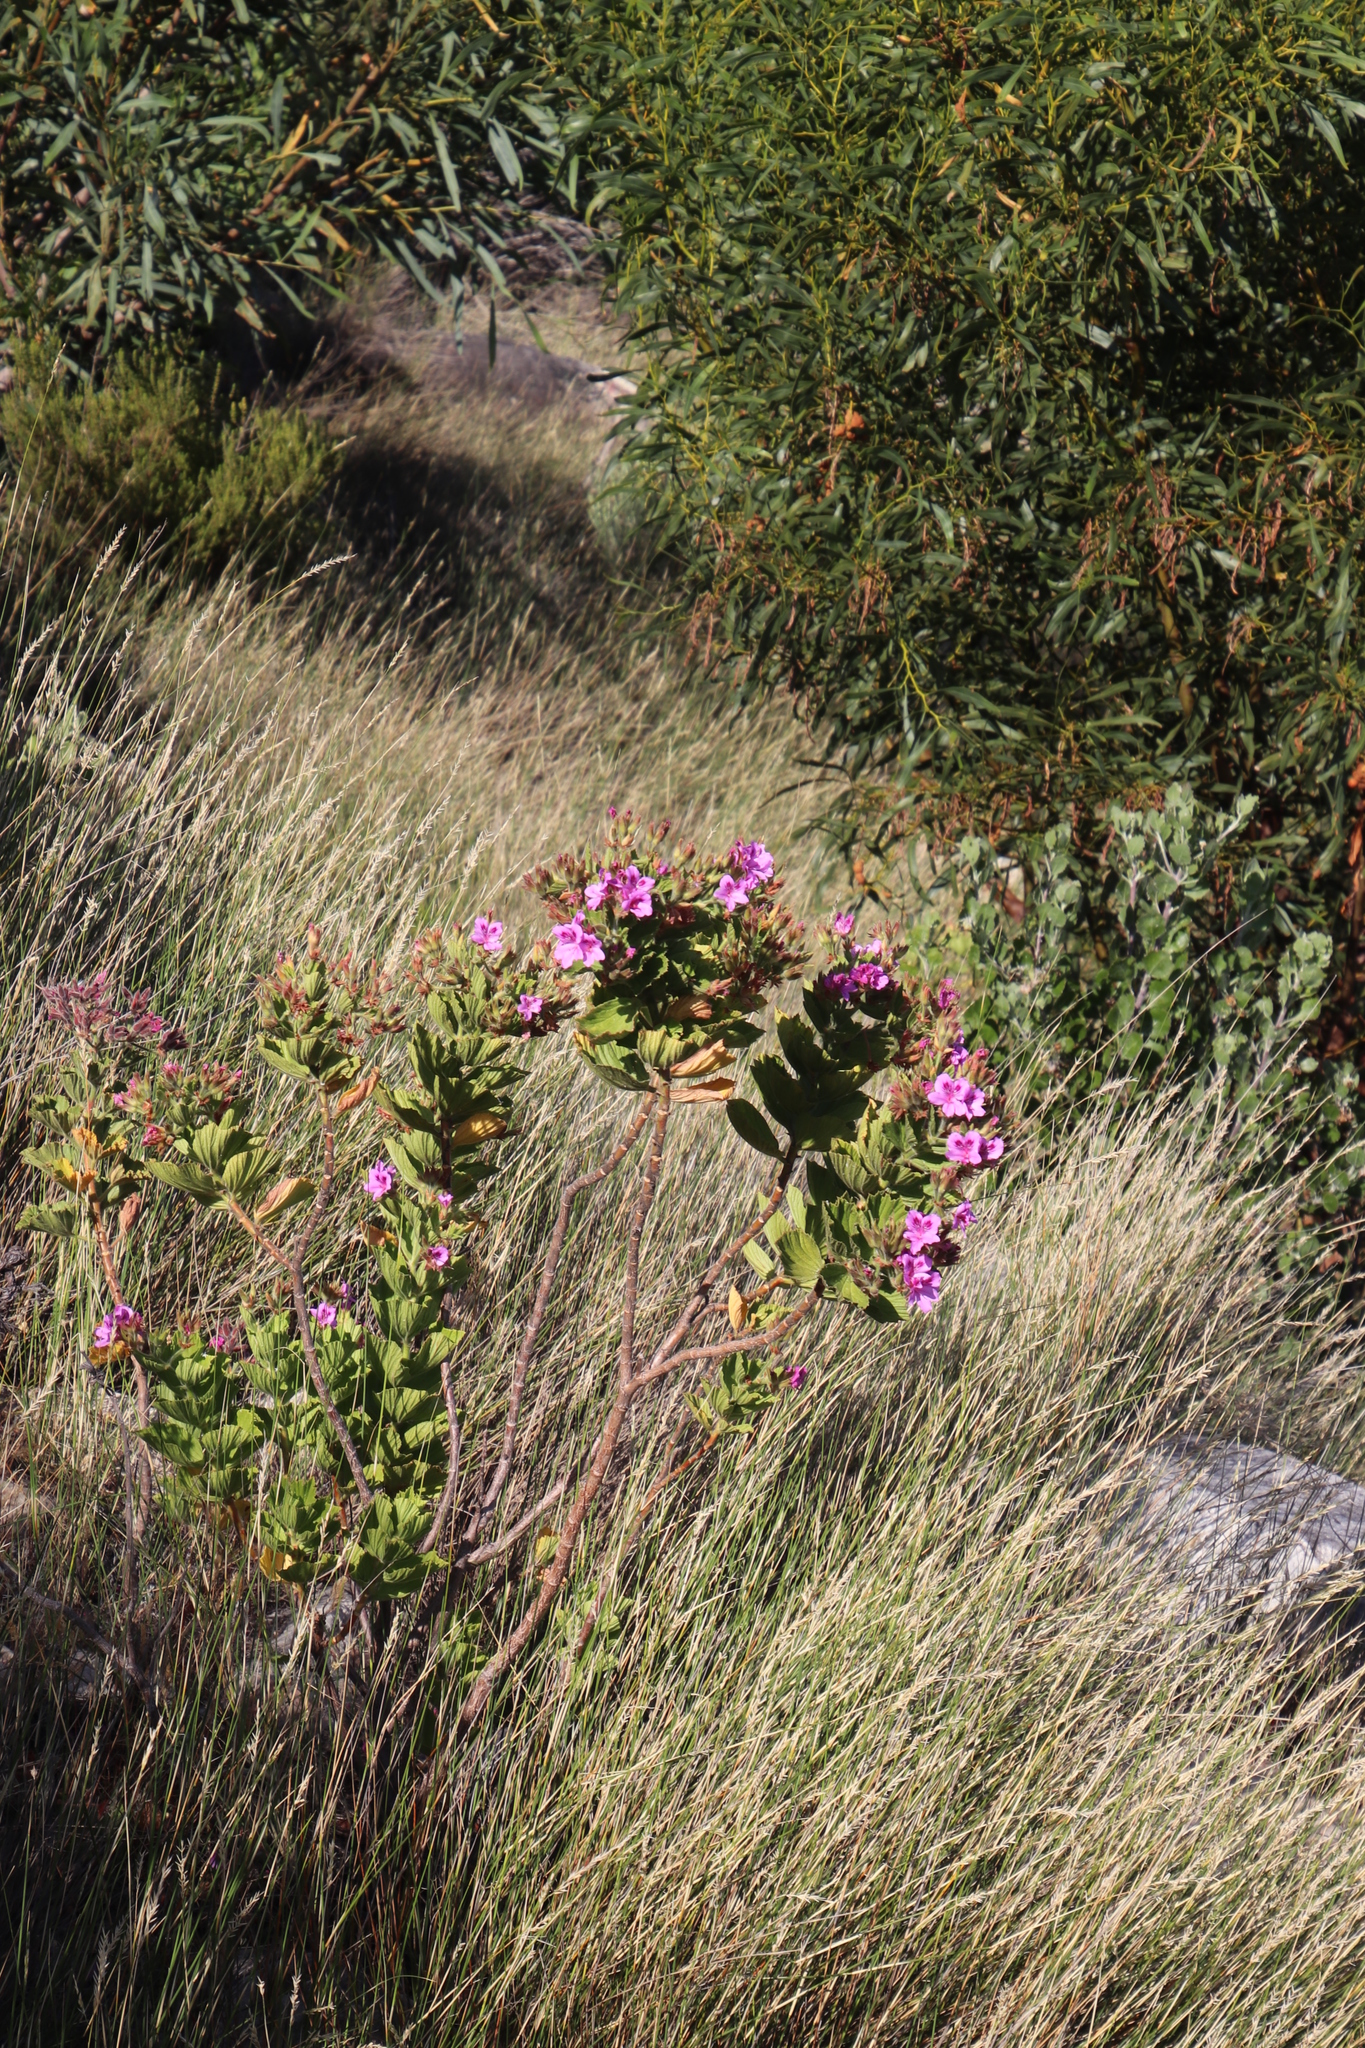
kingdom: Plantae
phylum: Tracheophyta
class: Magnoliopsida
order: Geraniales
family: Geraniaceae
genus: Pelargonium
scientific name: Pelargonium cucullatum
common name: Tree pelargonium
